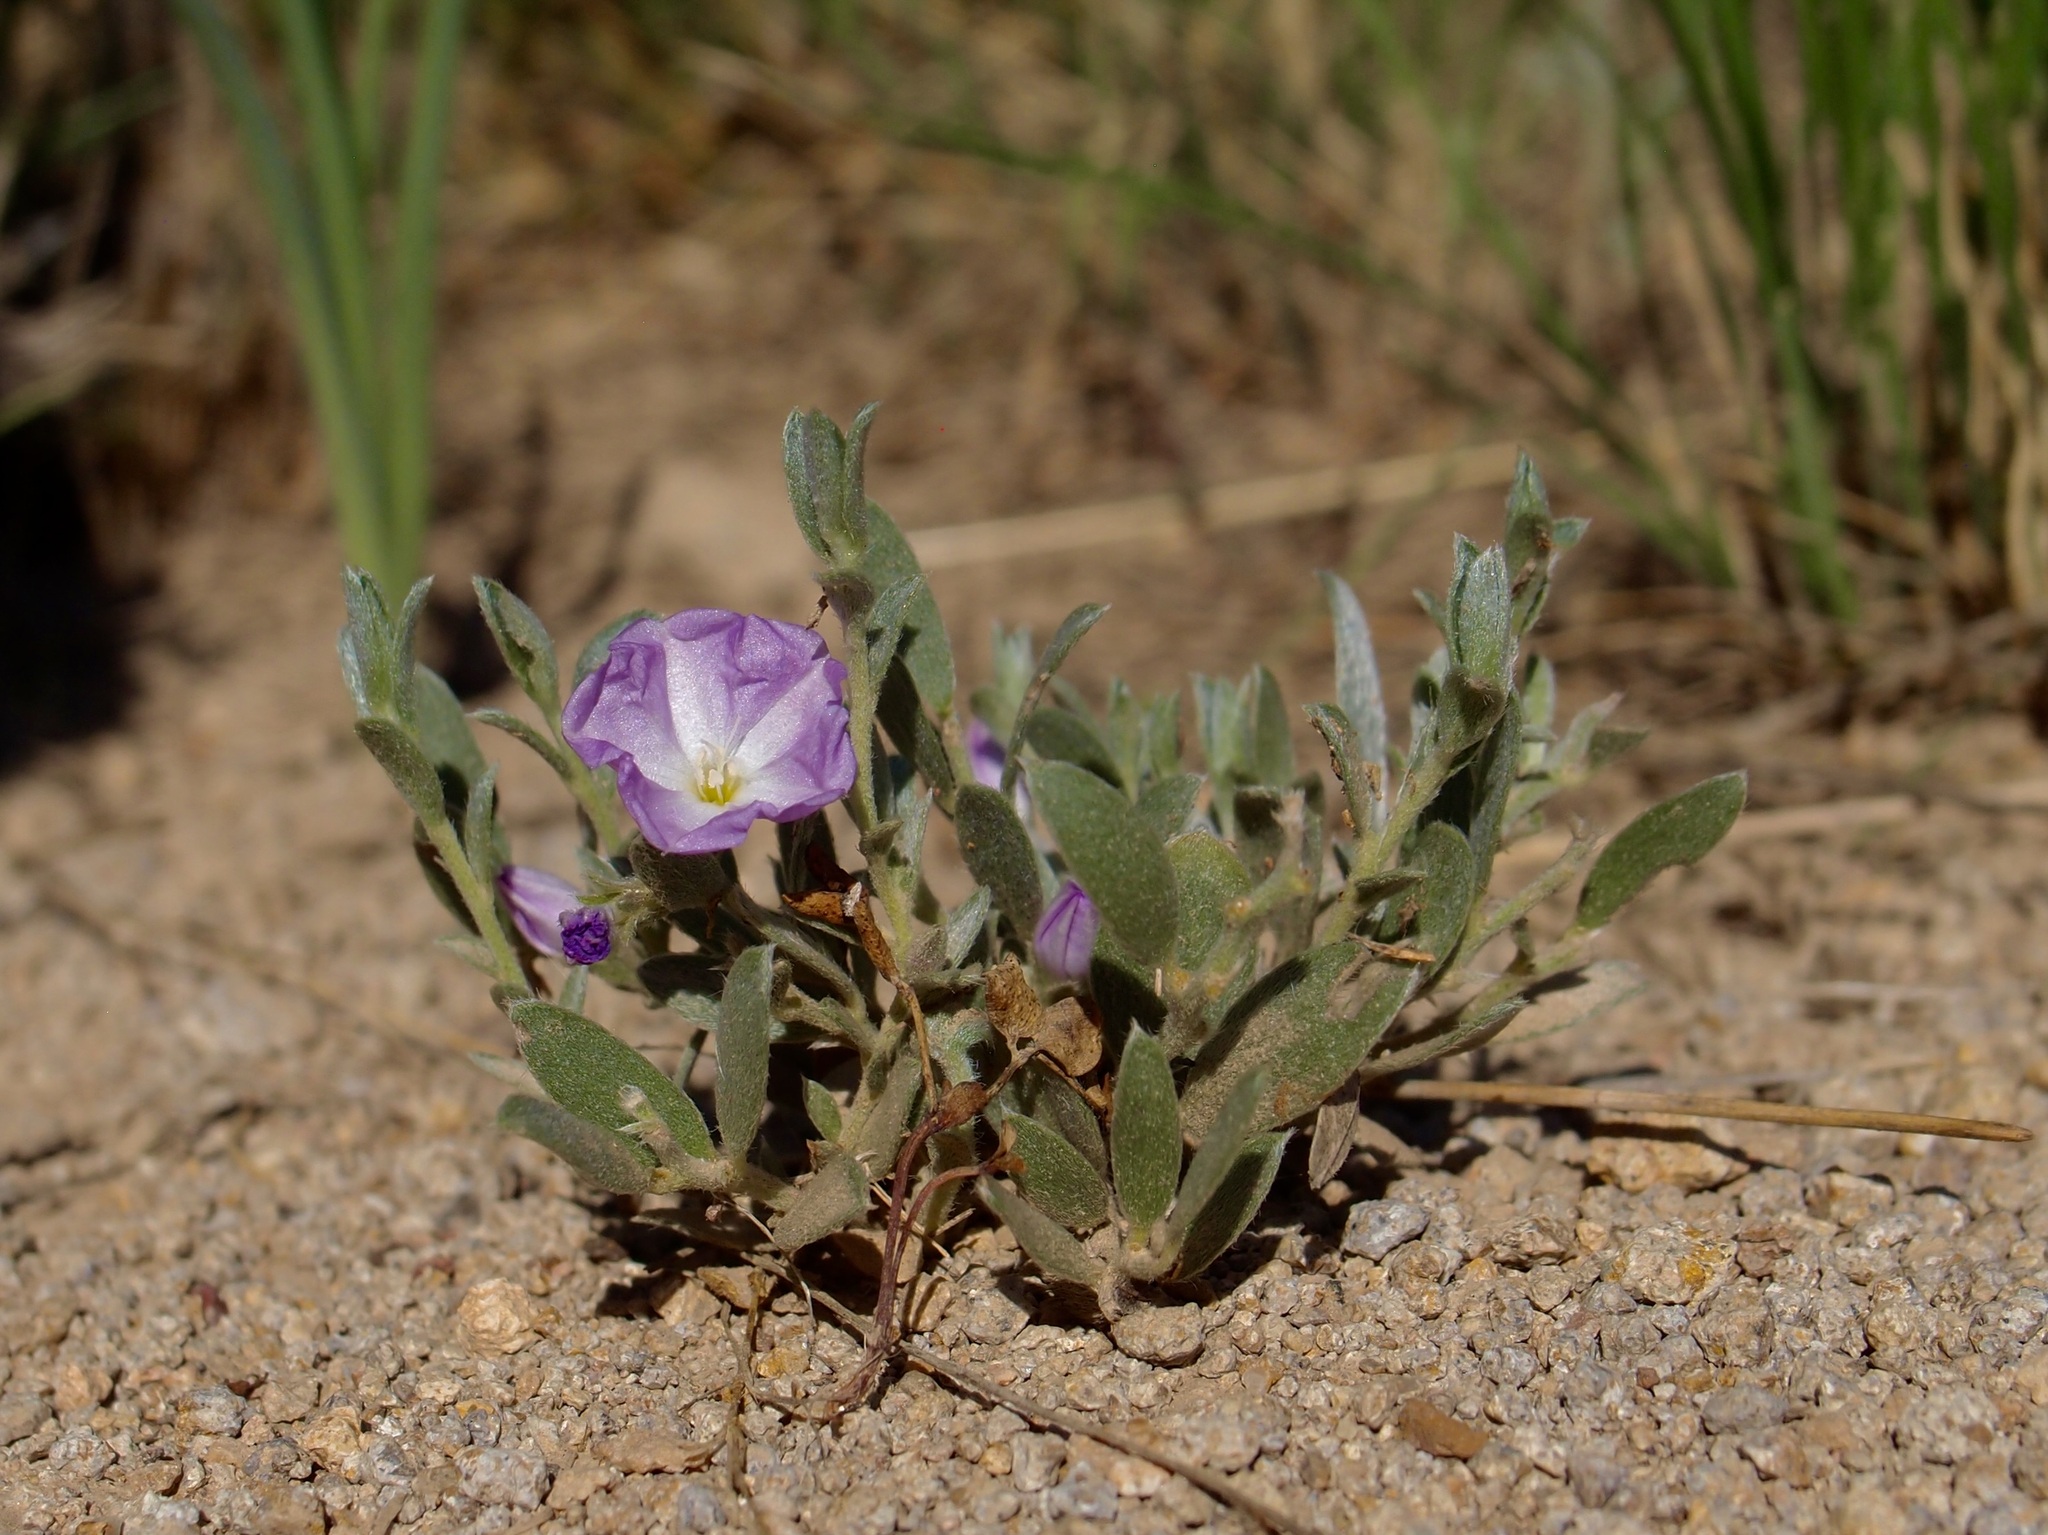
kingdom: Plantae
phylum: Tracheophyta
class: Magnoliopsida
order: Solanales
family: Convolvulaceae
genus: Evolvulus
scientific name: Evolvulus nuttallianus
